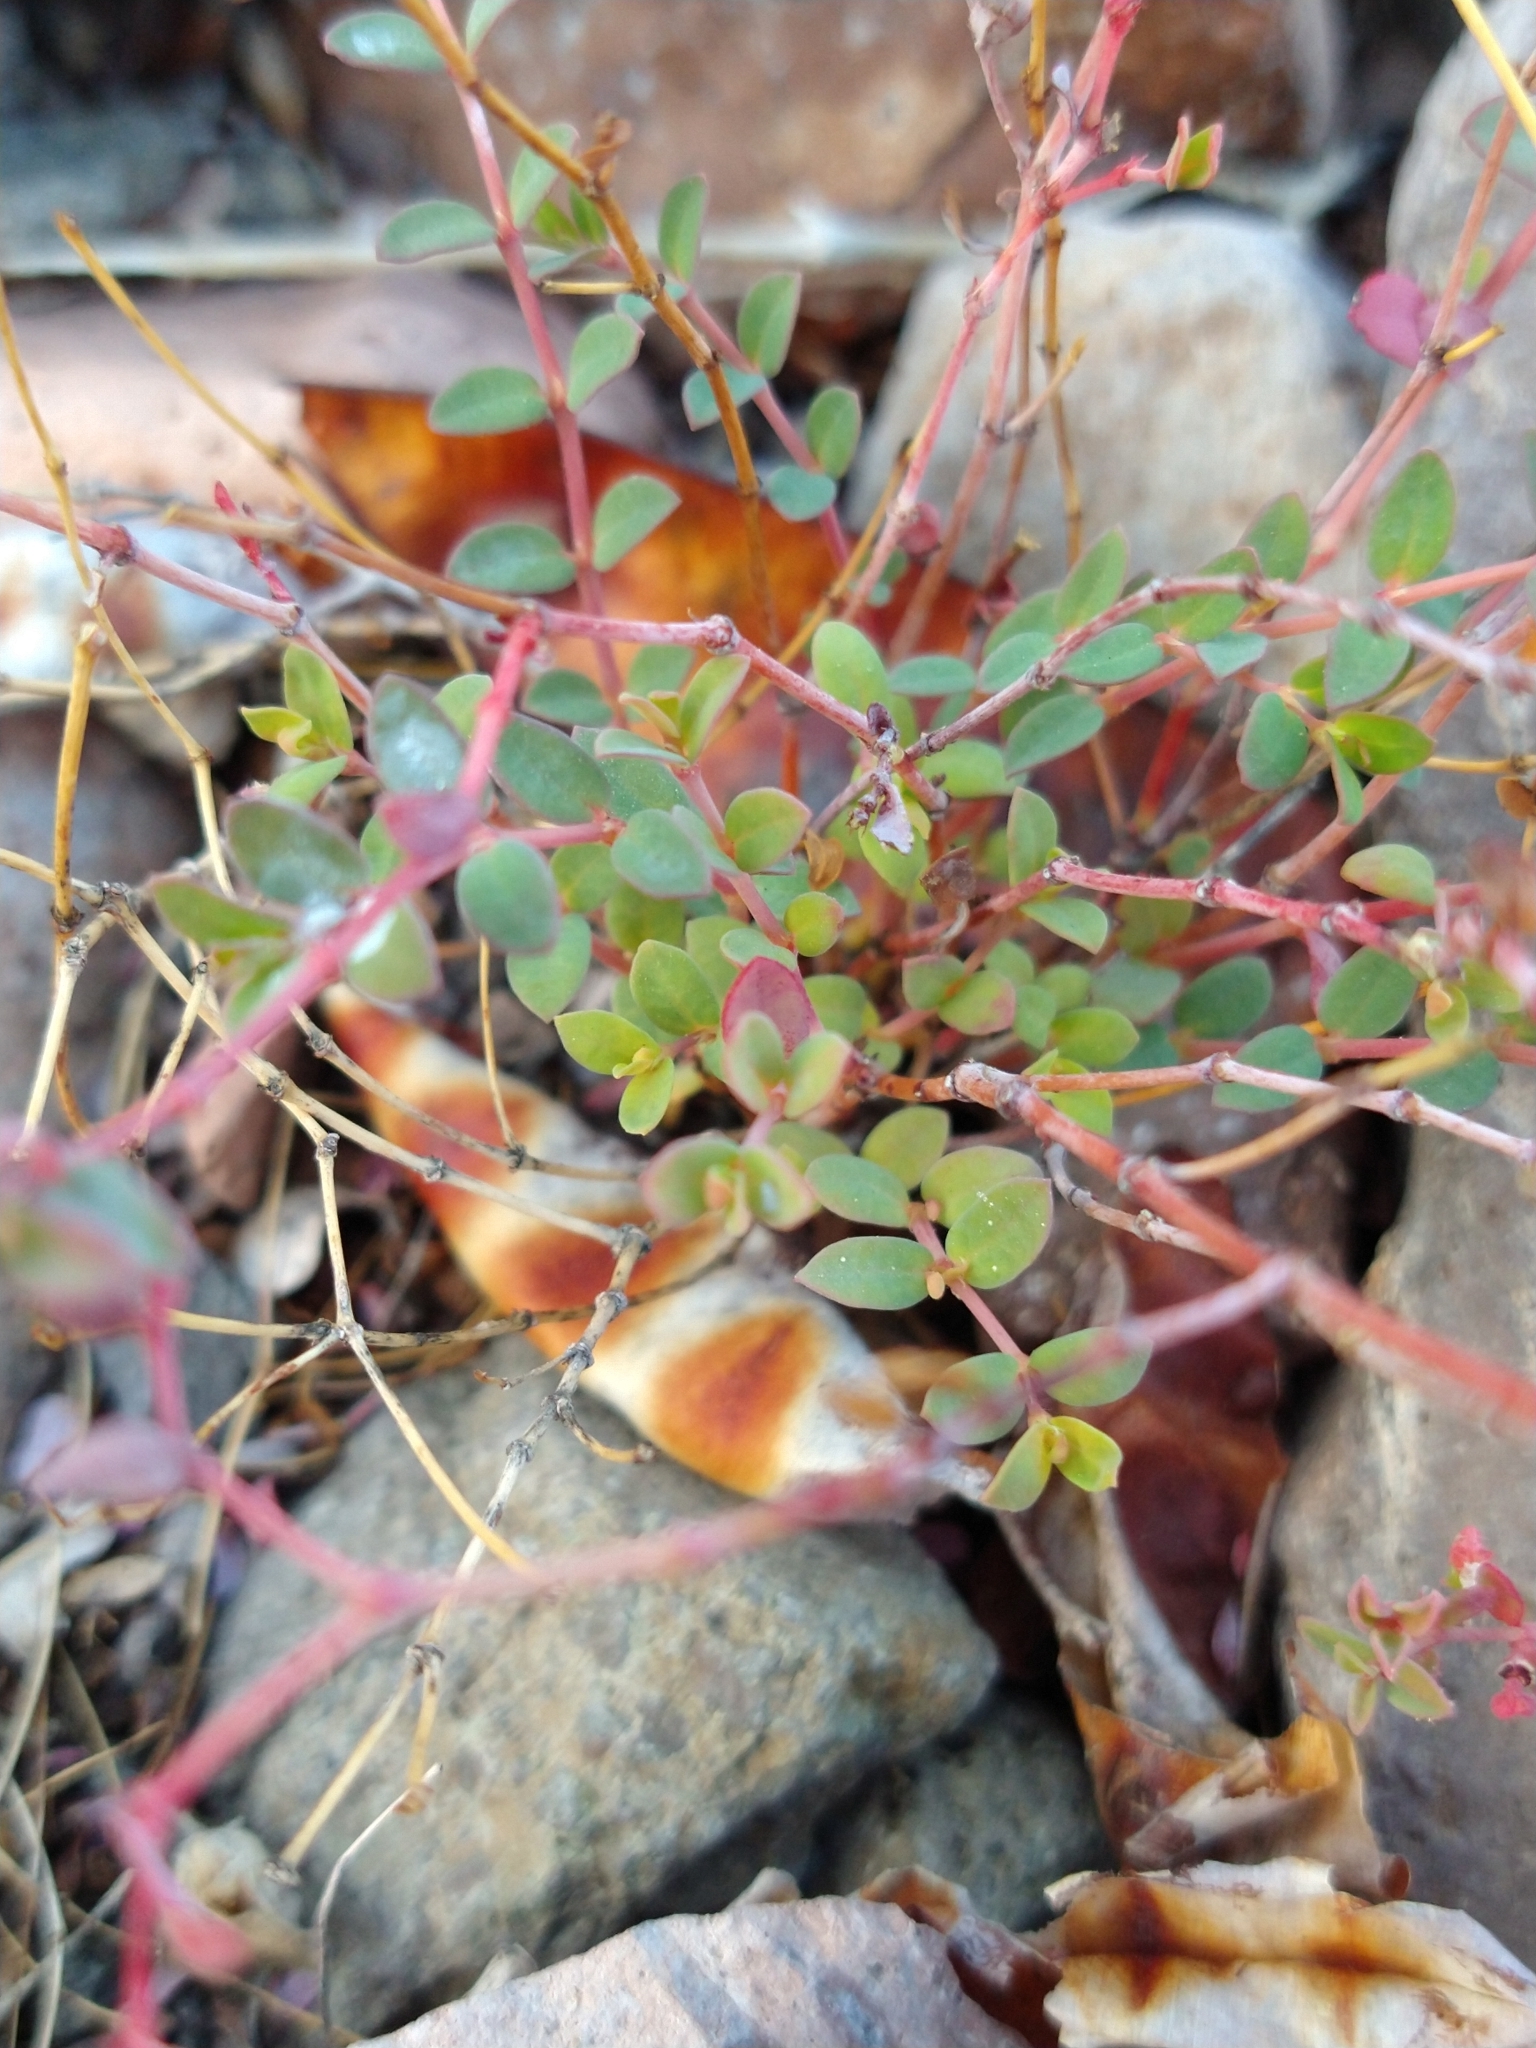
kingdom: Plantae
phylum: Tracheophyta
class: Magnoliopsida
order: Malpighiales
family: Euphorbiaceae
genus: Euphorbia
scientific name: Euphorbia polycarpa
